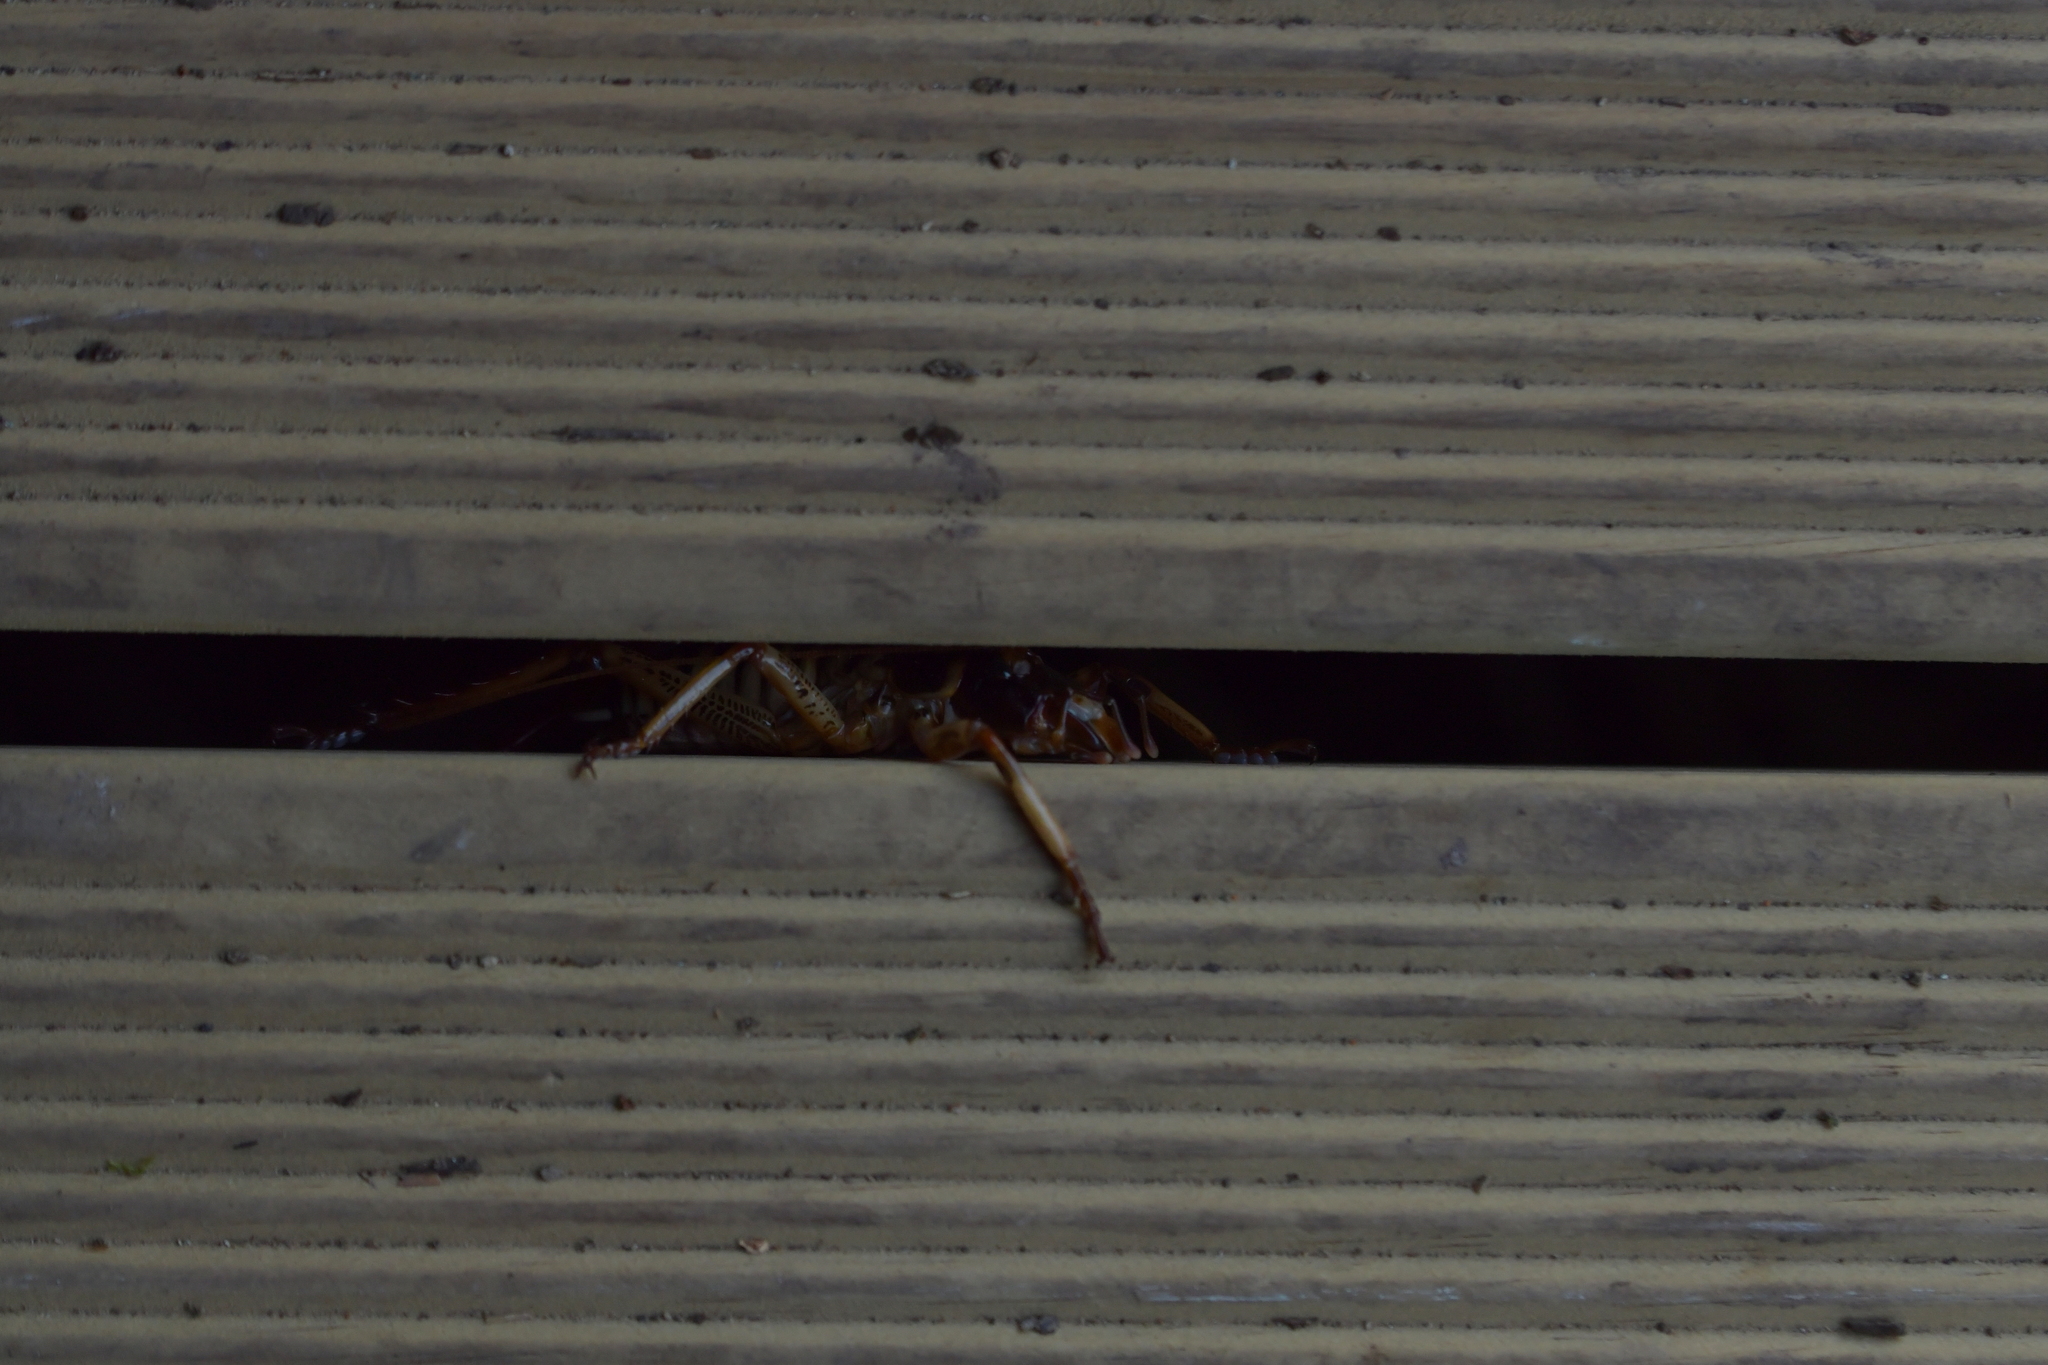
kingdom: Animalia
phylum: Arthropoda
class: Insecta
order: Orthoptera
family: Anostostomatidae
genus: Hemideina
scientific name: Hemideina crassidens
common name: Wellington tree weta
